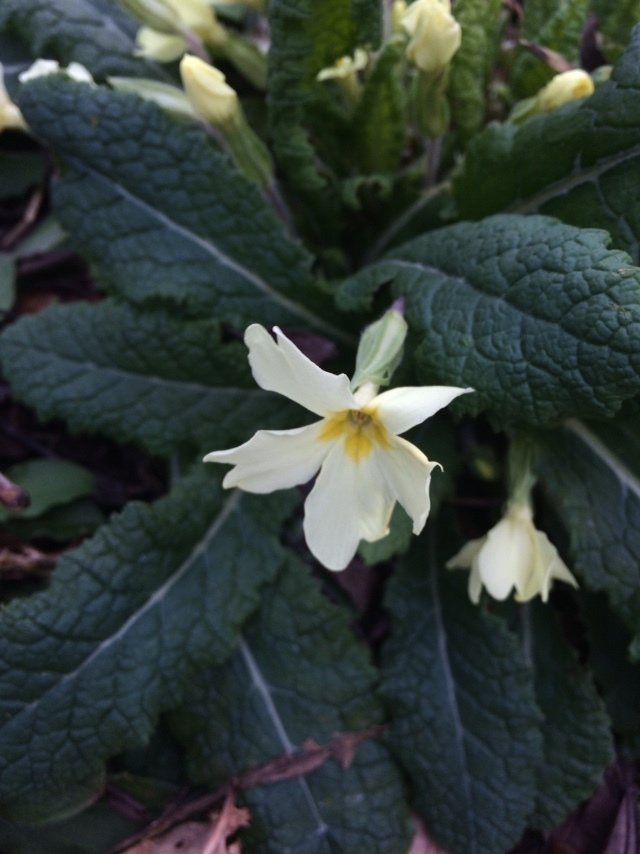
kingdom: Plantae
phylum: Tracheophyta
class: Magnoliopsida
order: Ericales
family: Primulaceae
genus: Primula
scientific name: Primula vulgaris
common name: Primrose
